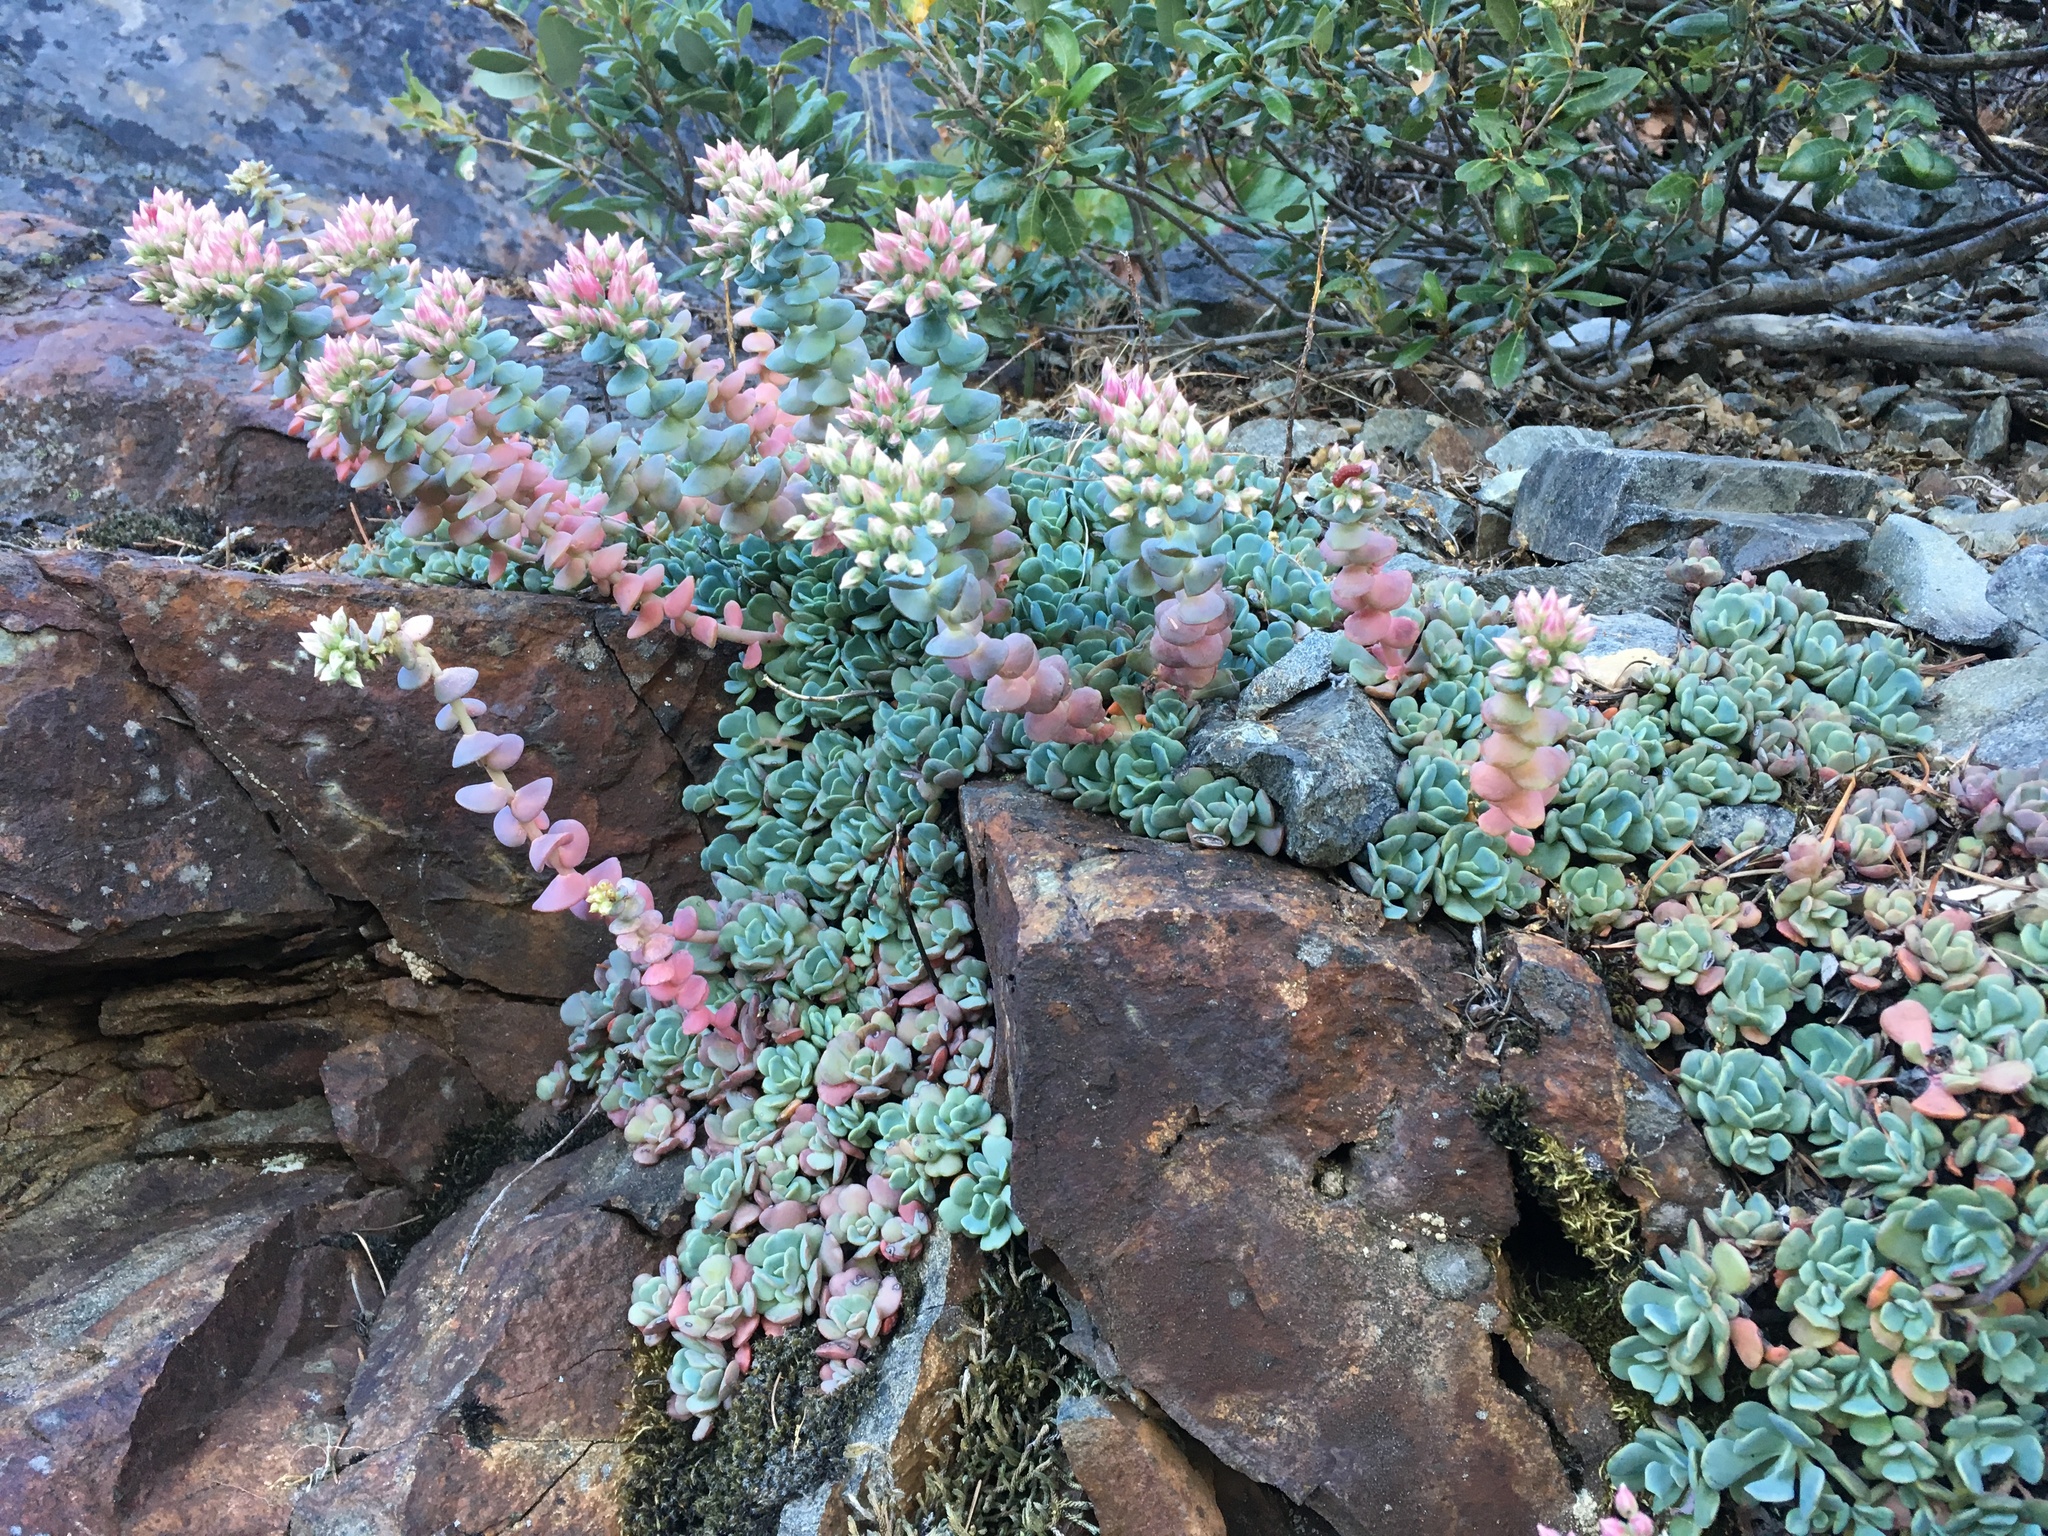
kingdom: Plantae
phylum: Tracheophyta
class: Magnoliopsida
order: Saxifragales
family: Crassulaceae
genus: Sedum
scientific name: Sedum laxum
